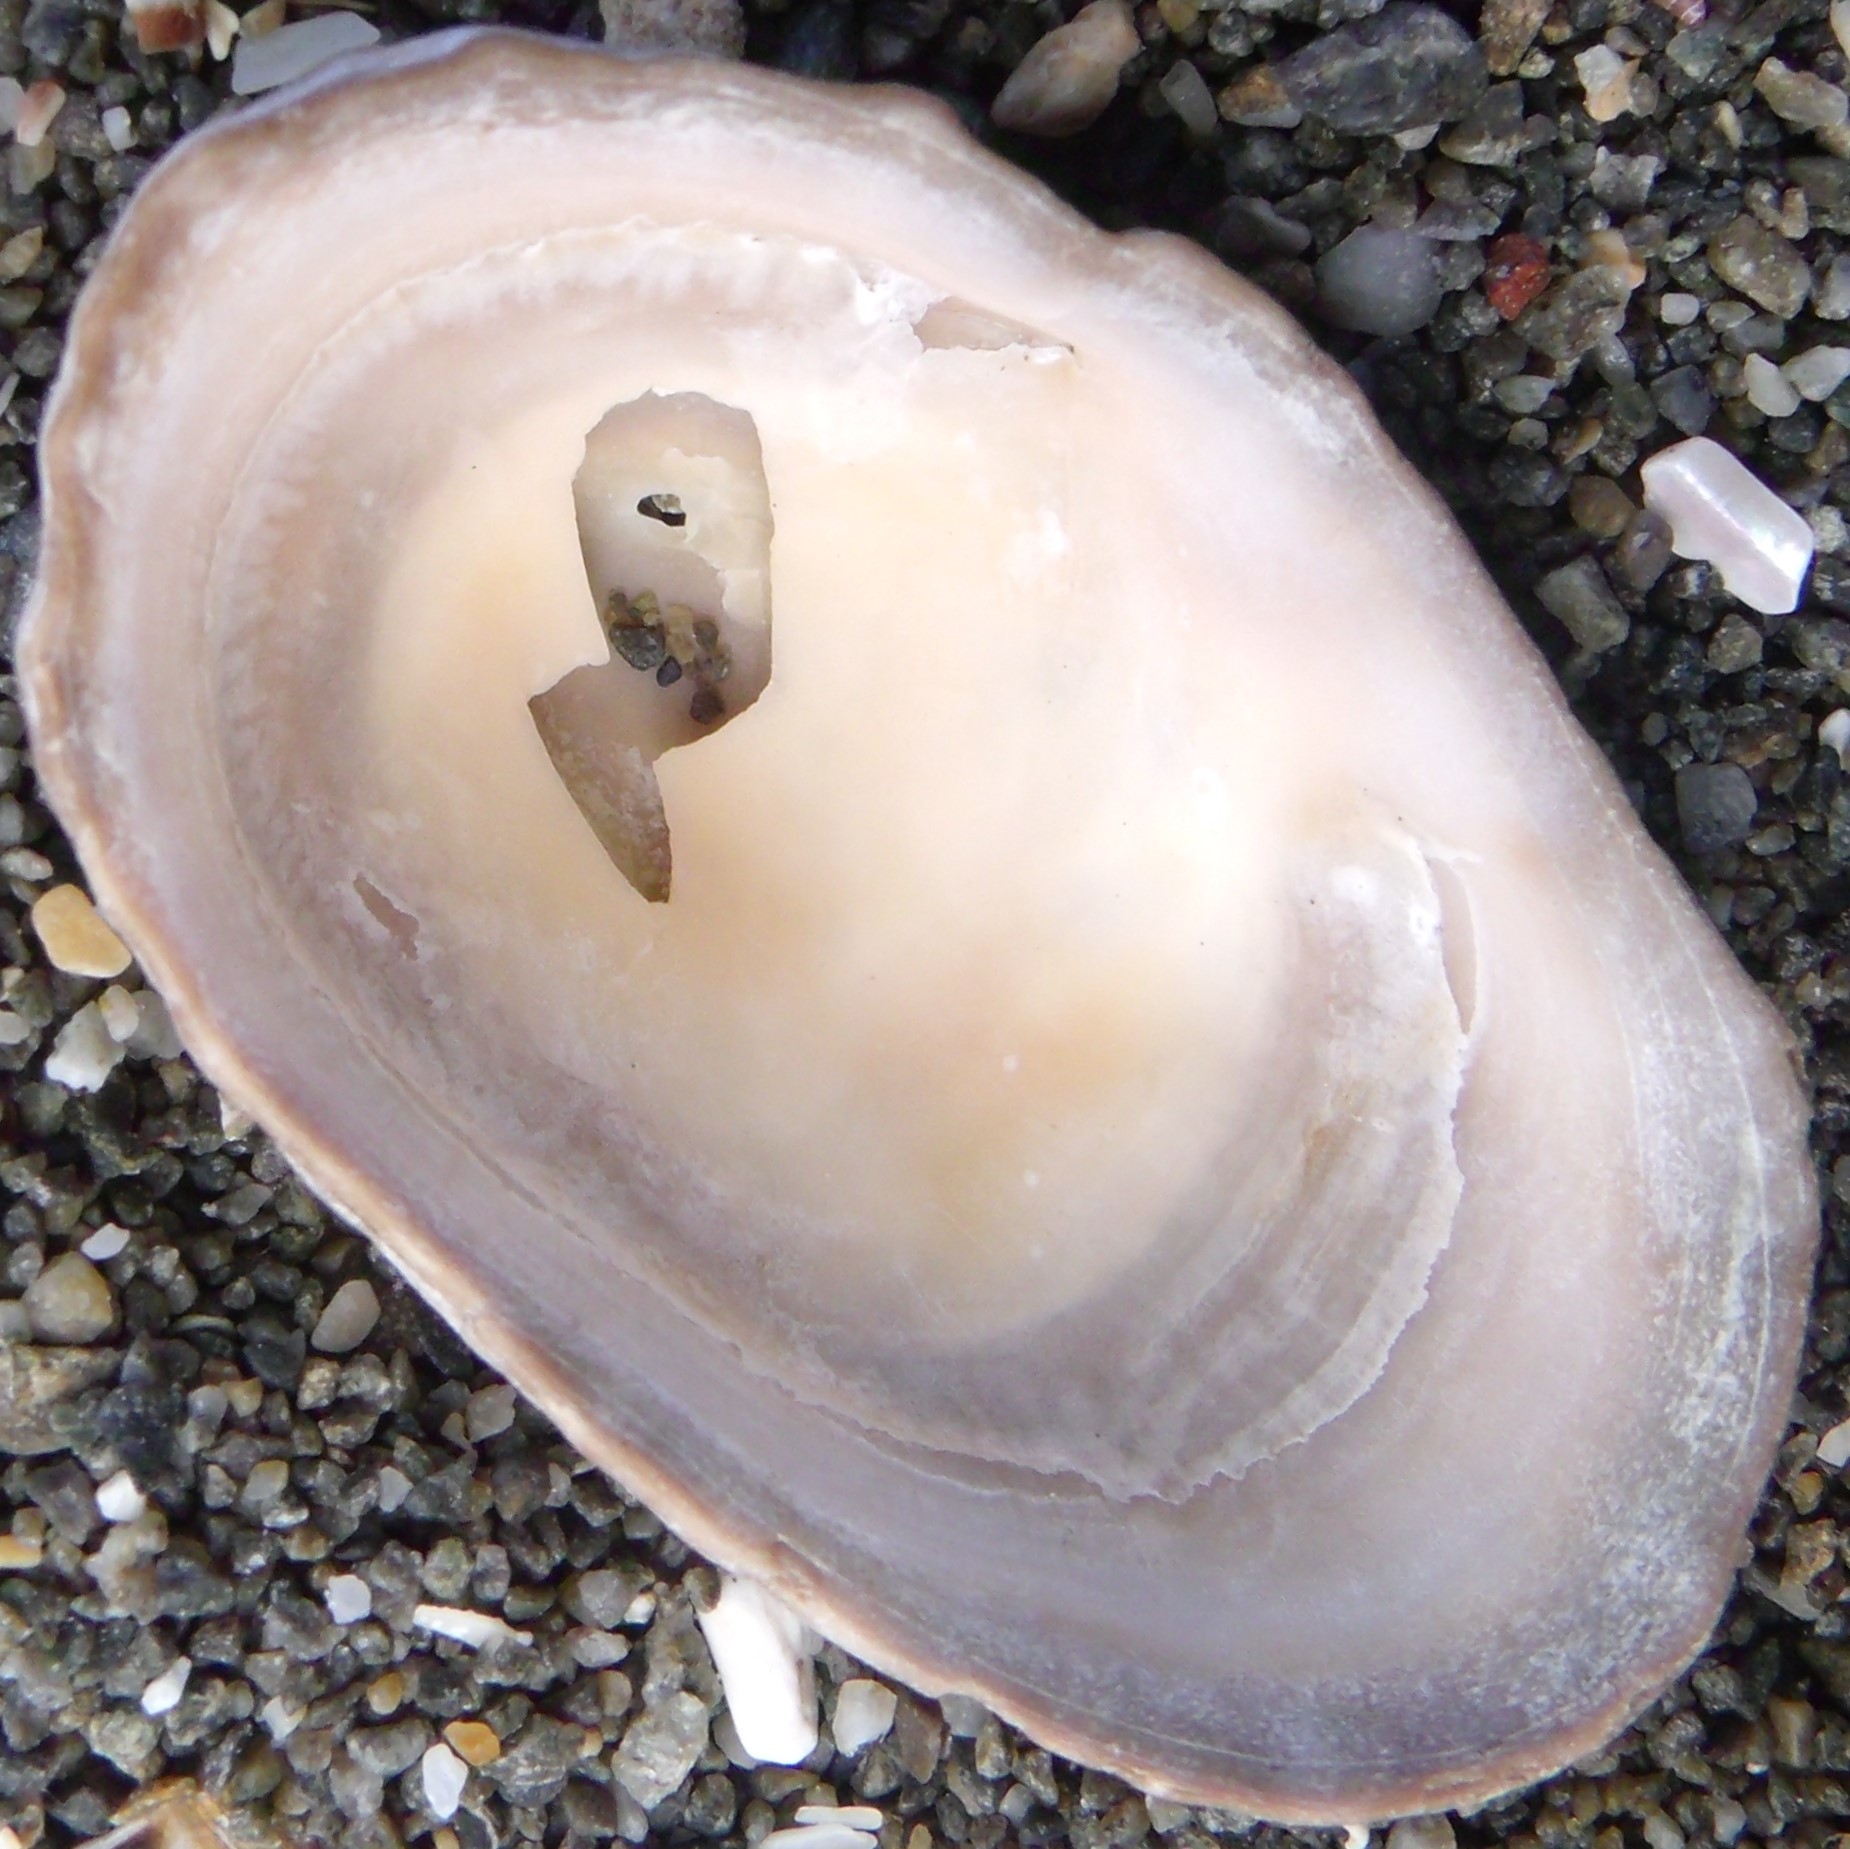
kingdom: Animalia
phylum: Mollusca
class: Gastropoda
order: Siphonariida
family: Siphonariidae
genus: Benhamina
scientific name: Benhamina obliquata
